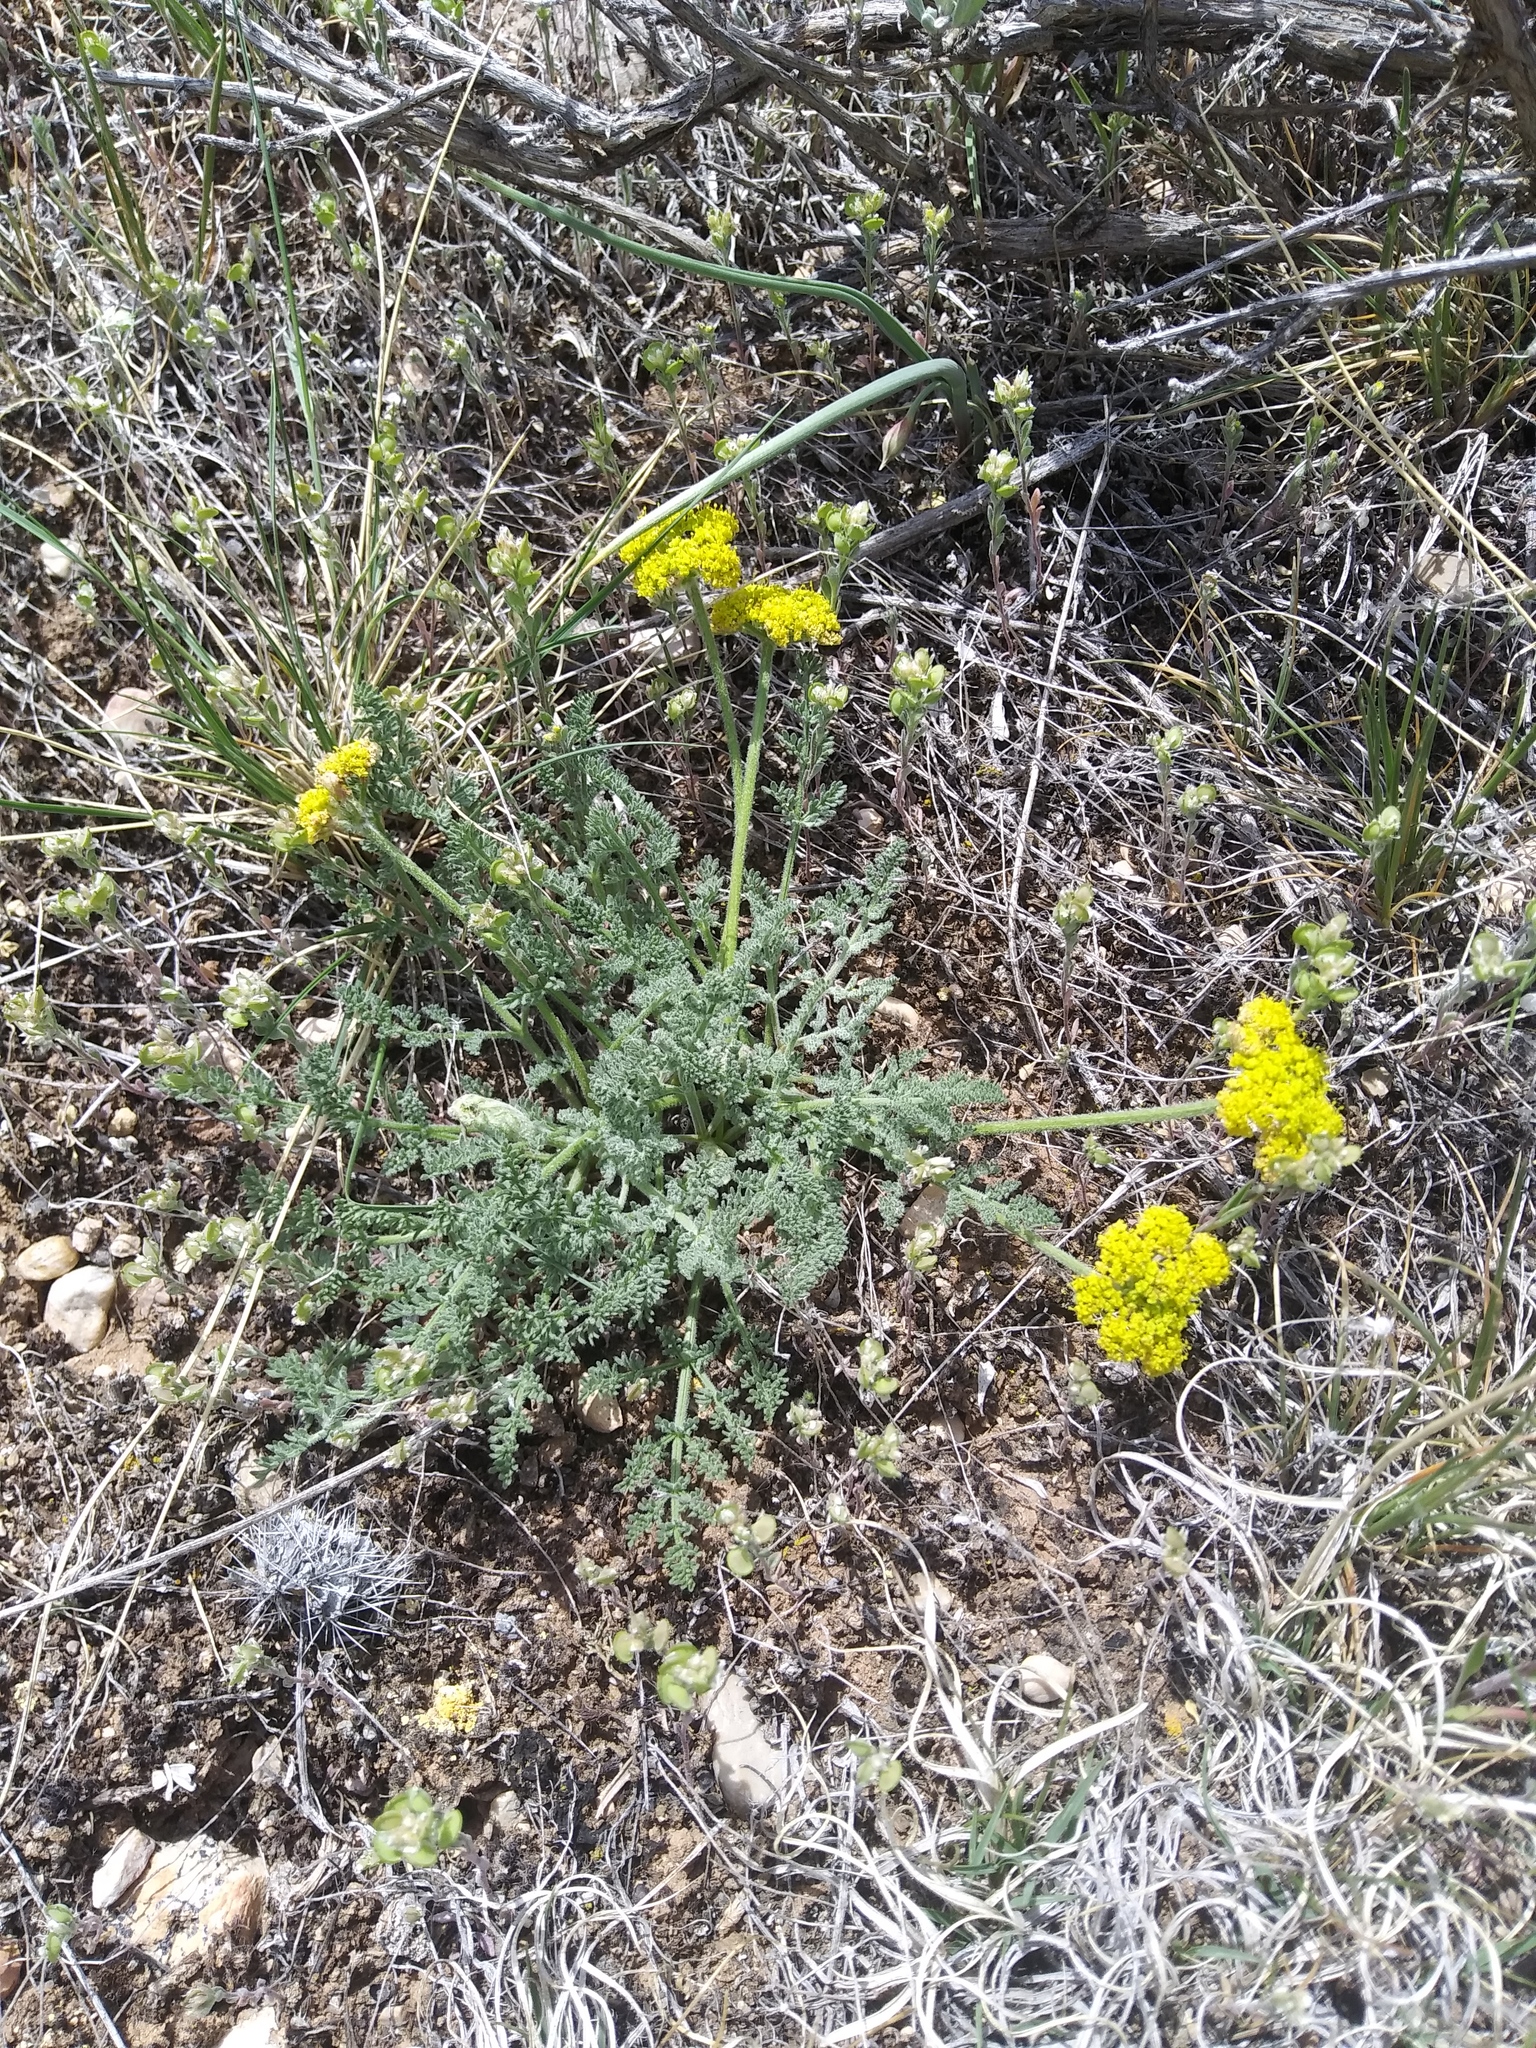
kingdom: Plantae
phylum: Tracheophyta
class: Magnoliopsida
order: Apiales
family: Apiaceae
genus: Lomatium
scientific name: Lomatium foeniculaceum
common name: Desert-parsley
